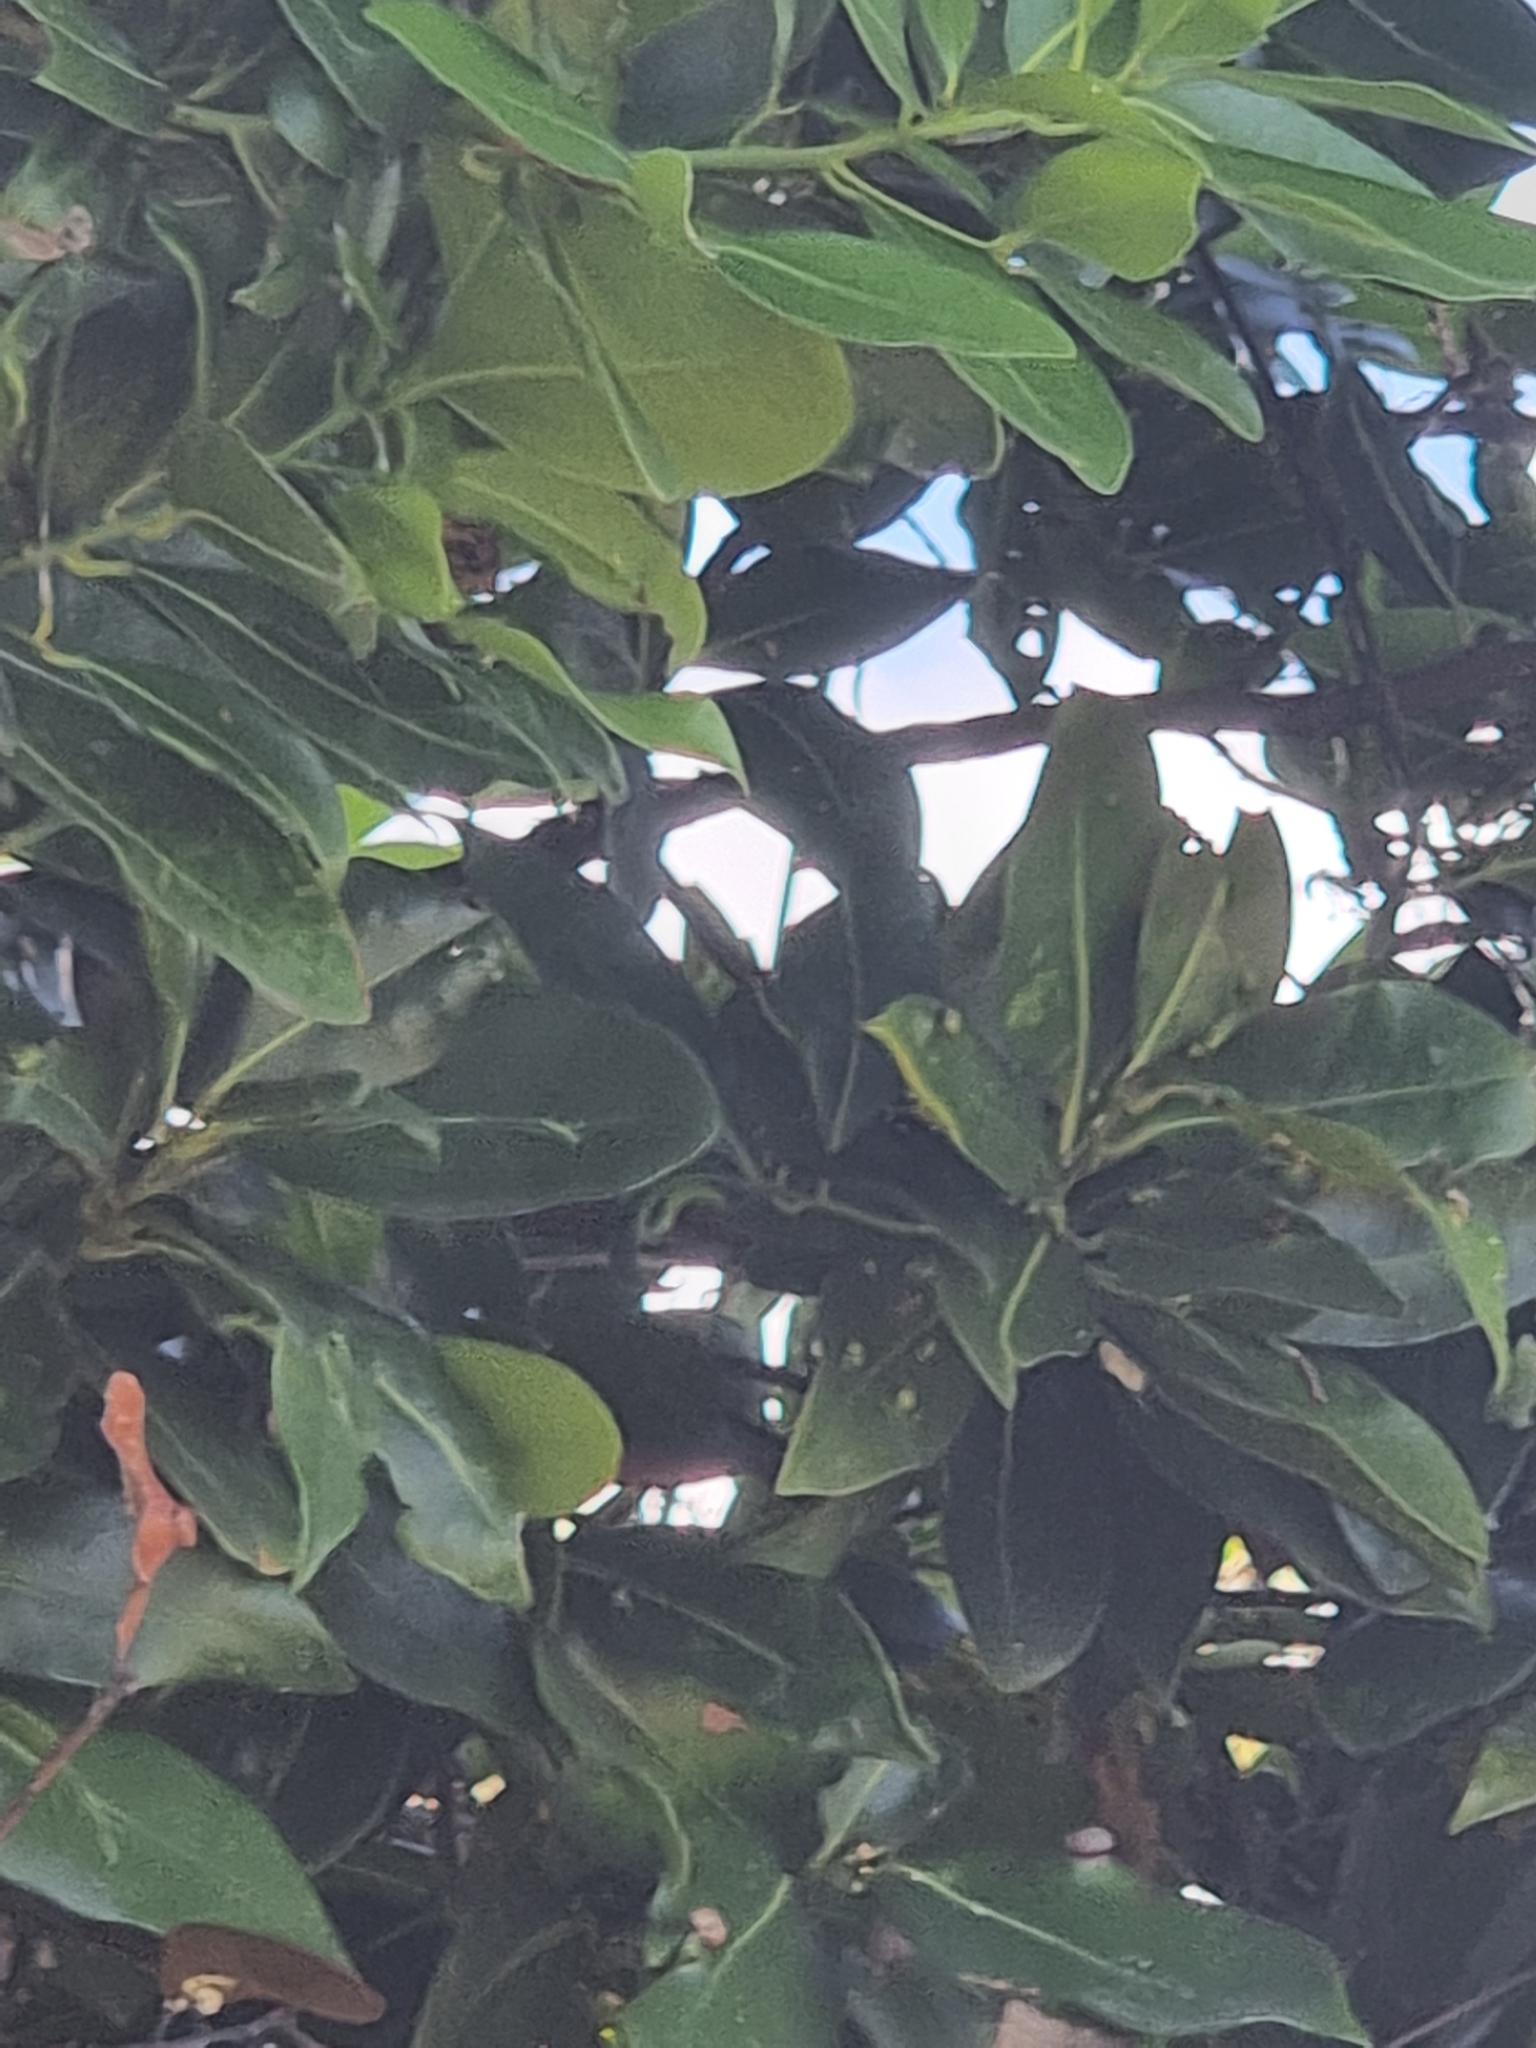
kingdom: Plantae
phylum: Tracheophyta
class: Magnoliopsida
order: Laurales
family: Lauraceae
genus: Apollonias
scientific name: Apollonias barbujana
